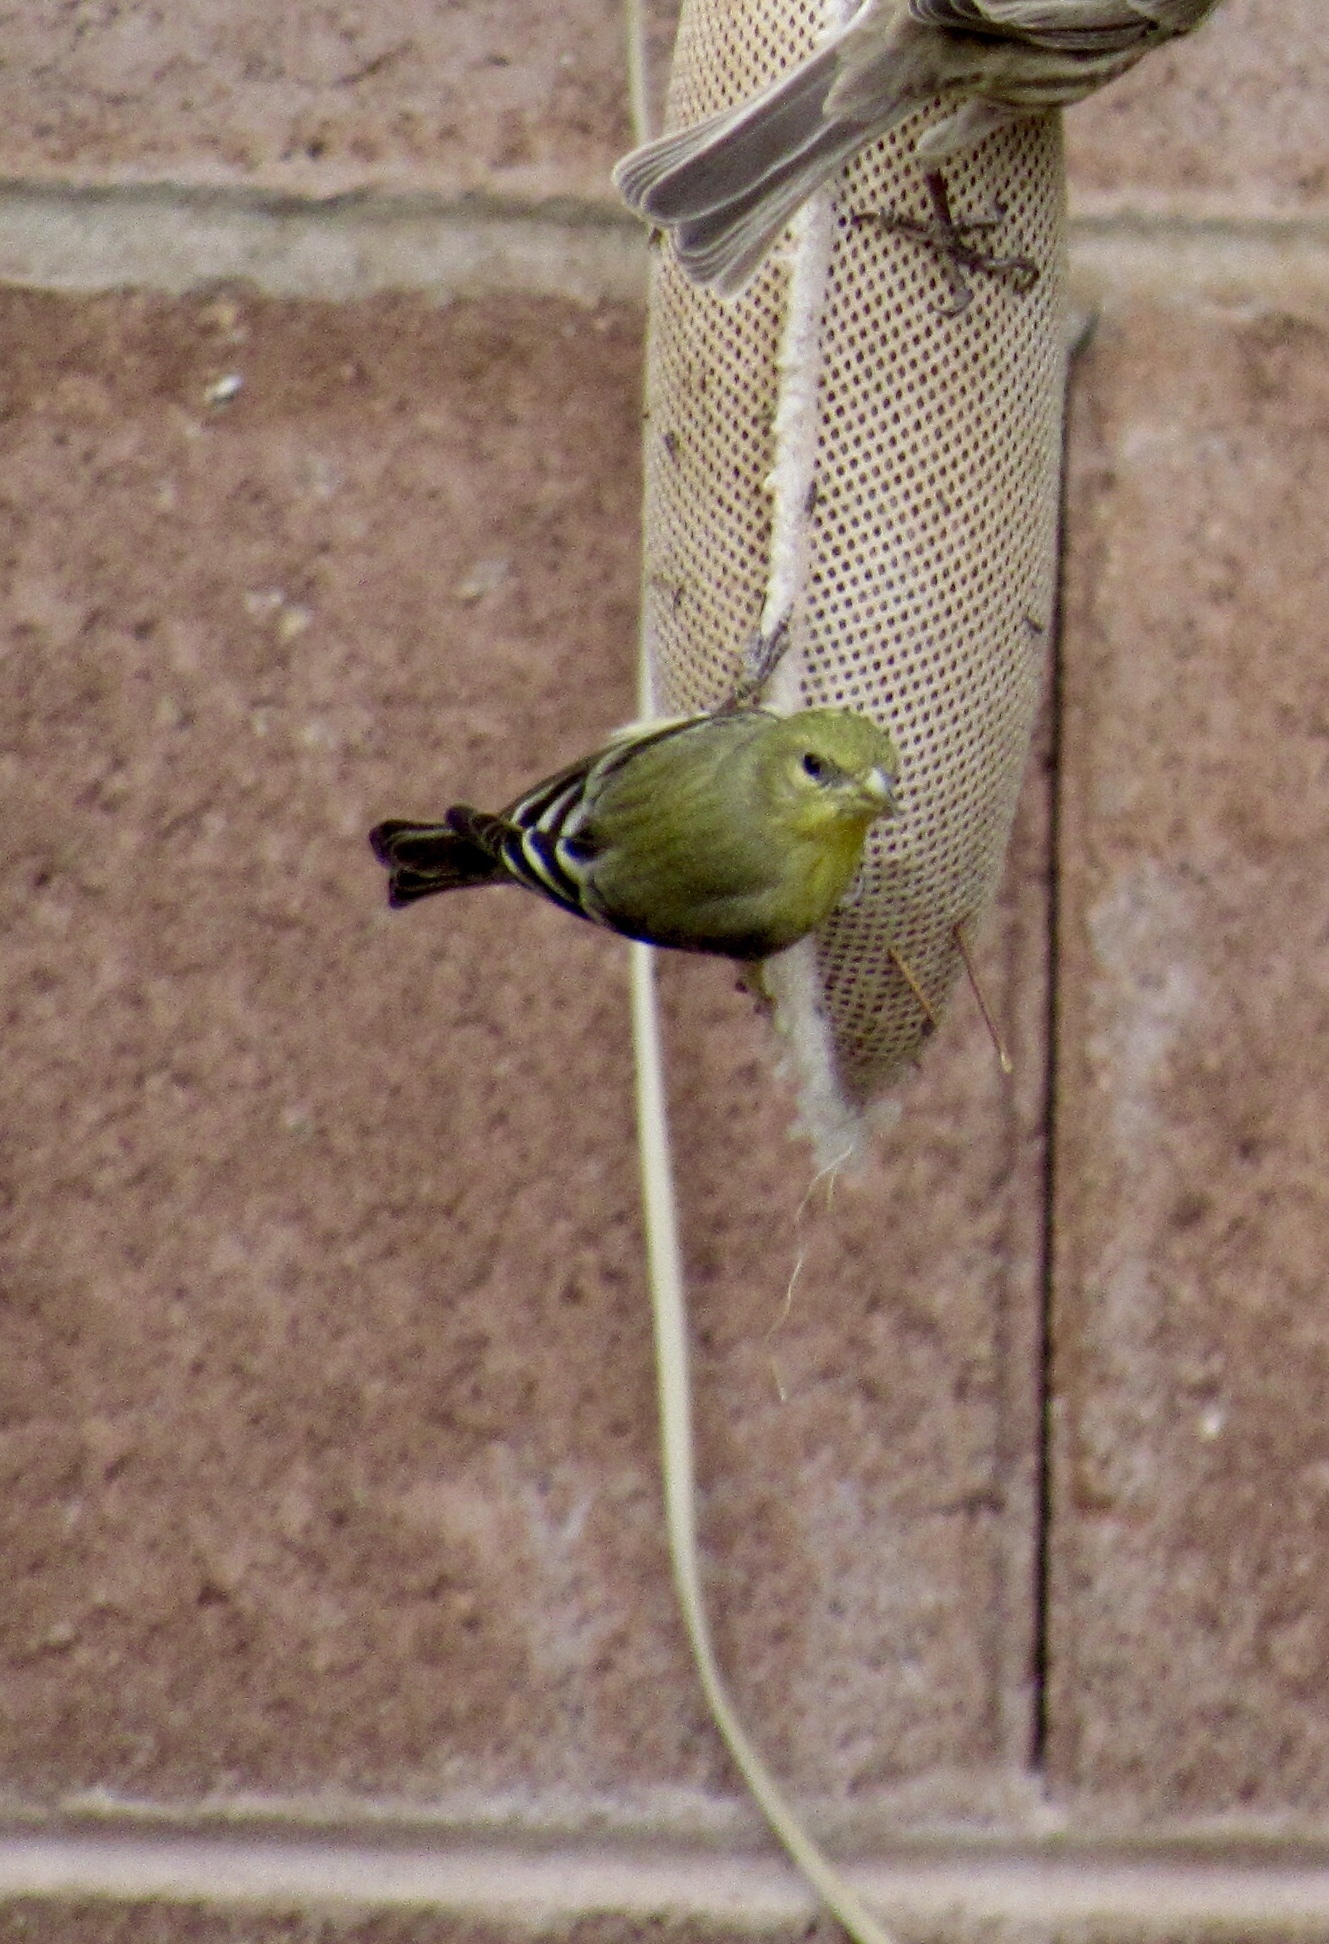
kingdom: Animalia
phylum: Chordata
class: Aves
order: Passeriformes
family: Fringillidae
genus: Spinus
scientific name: Spinus psaltria
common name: Lesser goldfinch
